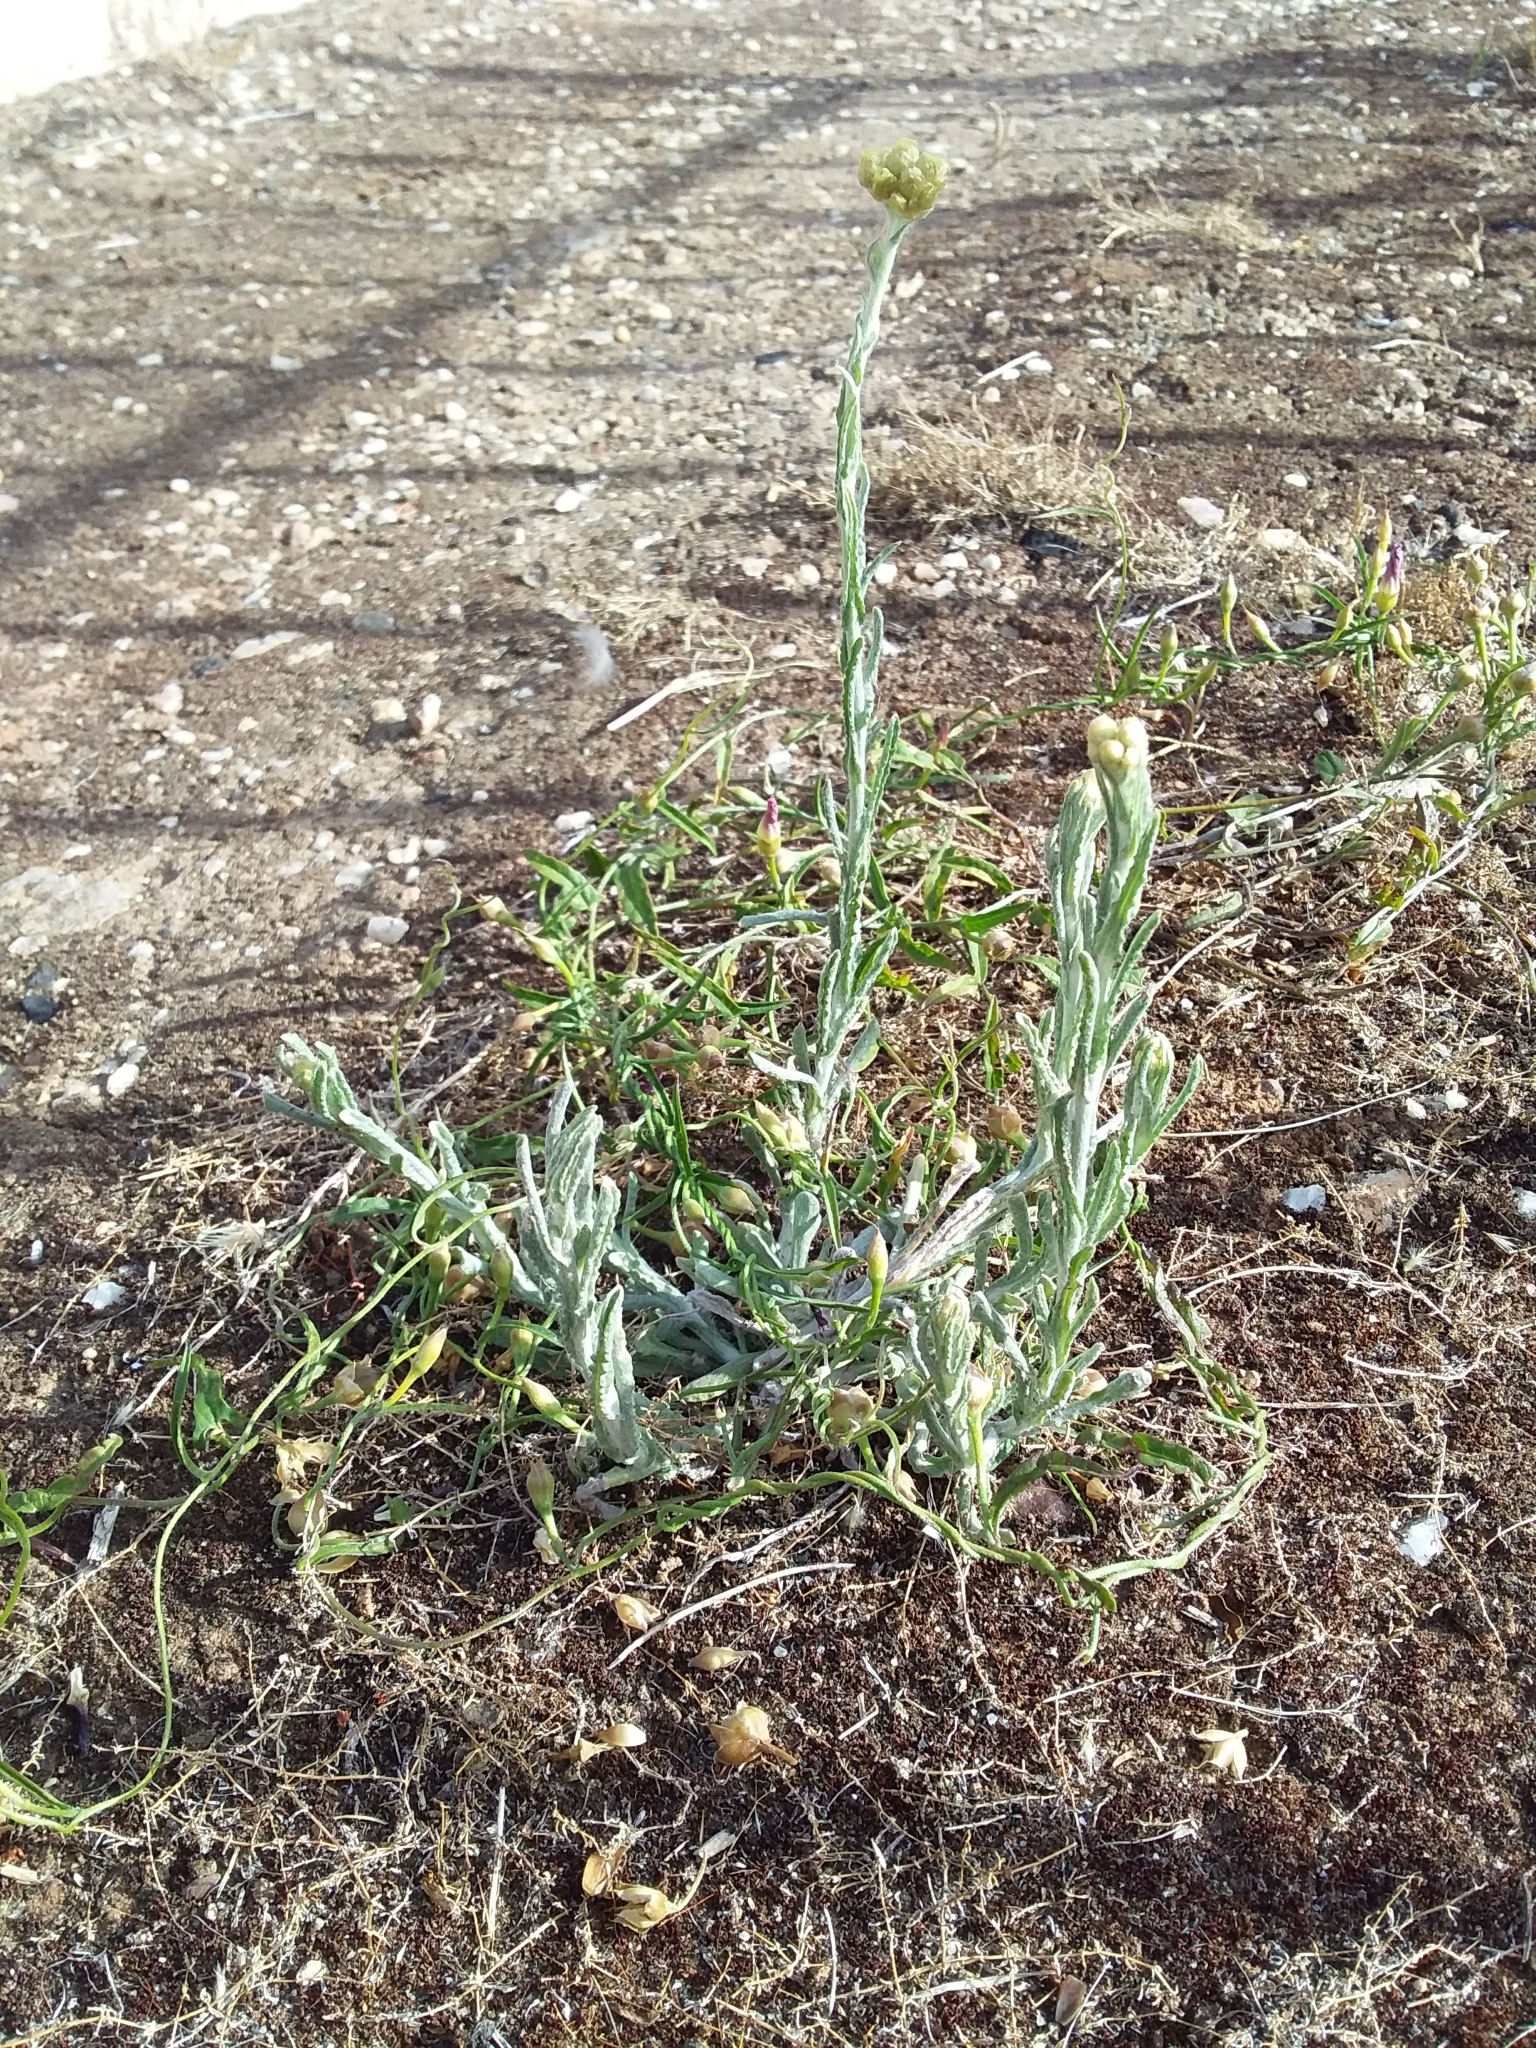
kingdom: Plantae
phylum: Tracheophyta
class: Magnoliopsida
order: Asterales
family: Asteraceae
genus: Helichrysum
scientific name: Helichrysum luteoalbum
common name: Daisy
